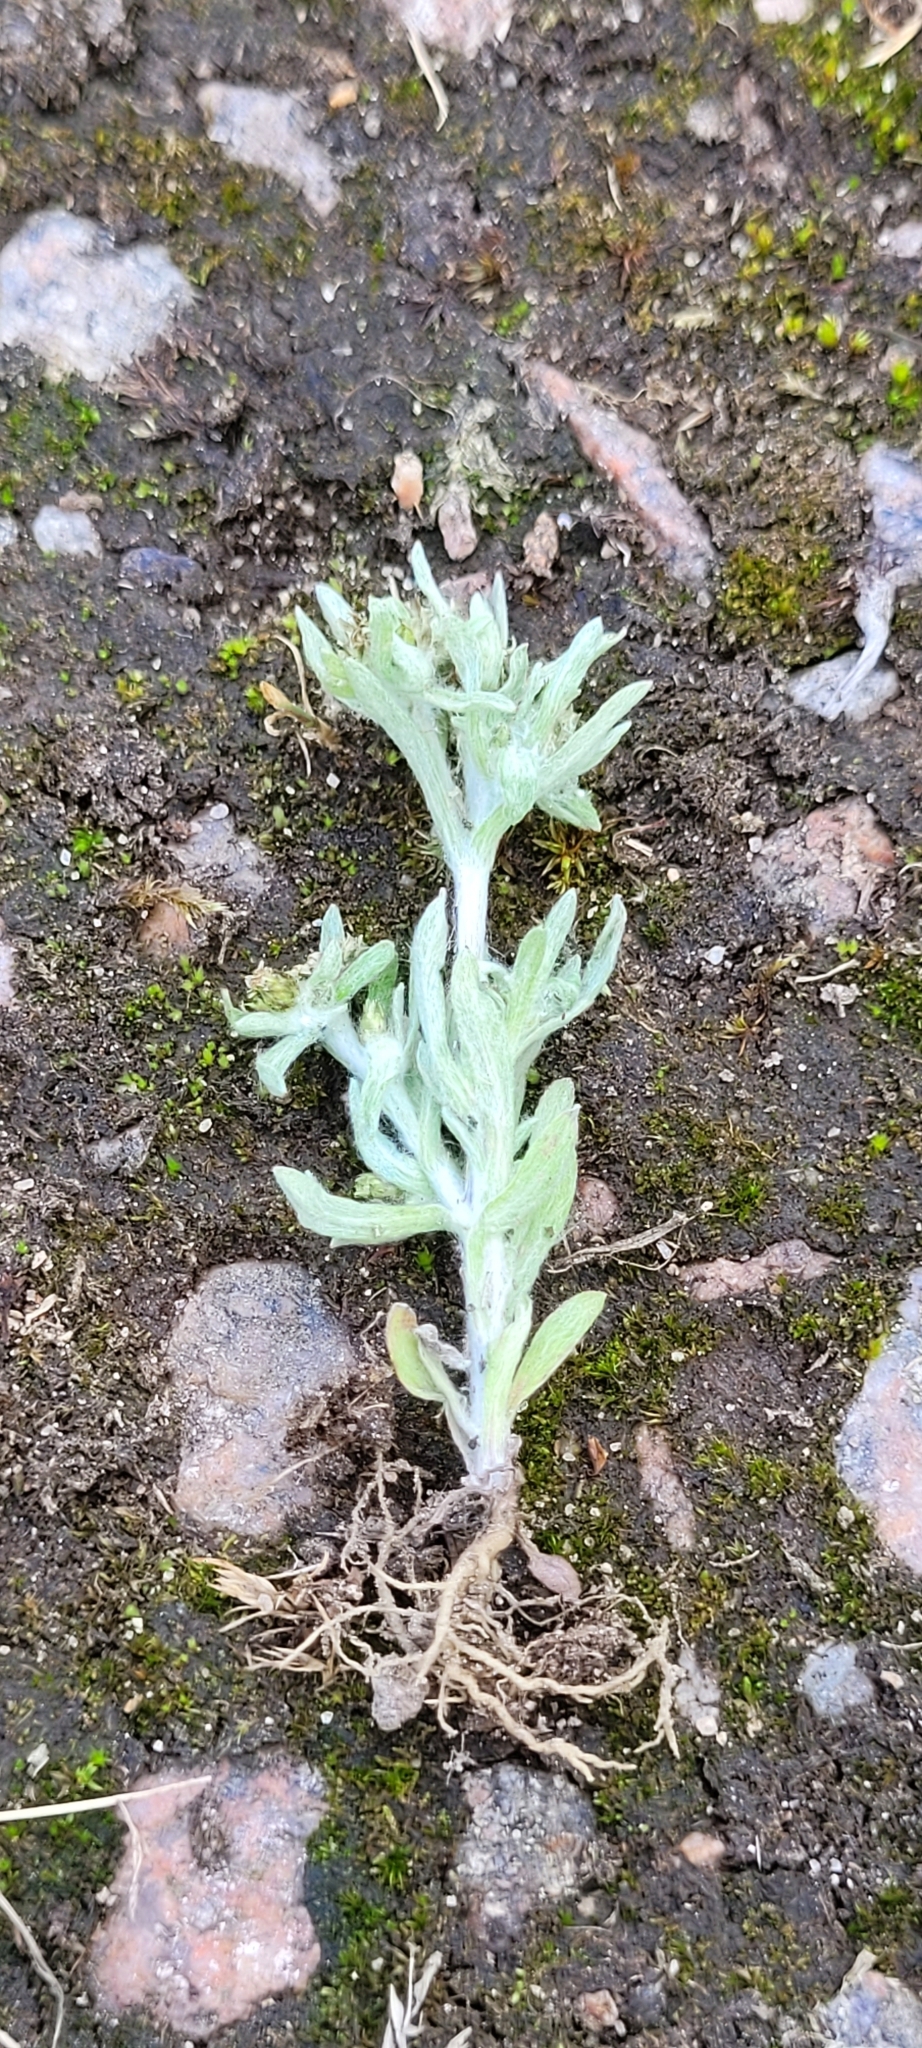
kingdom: Plantae
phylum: Tracheophyta
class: Magnoliopsida
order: Asterales
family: Asteraceae
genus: Gnaphalium
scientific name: Gnaphalium uliginosum
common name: Marsh cudweed
